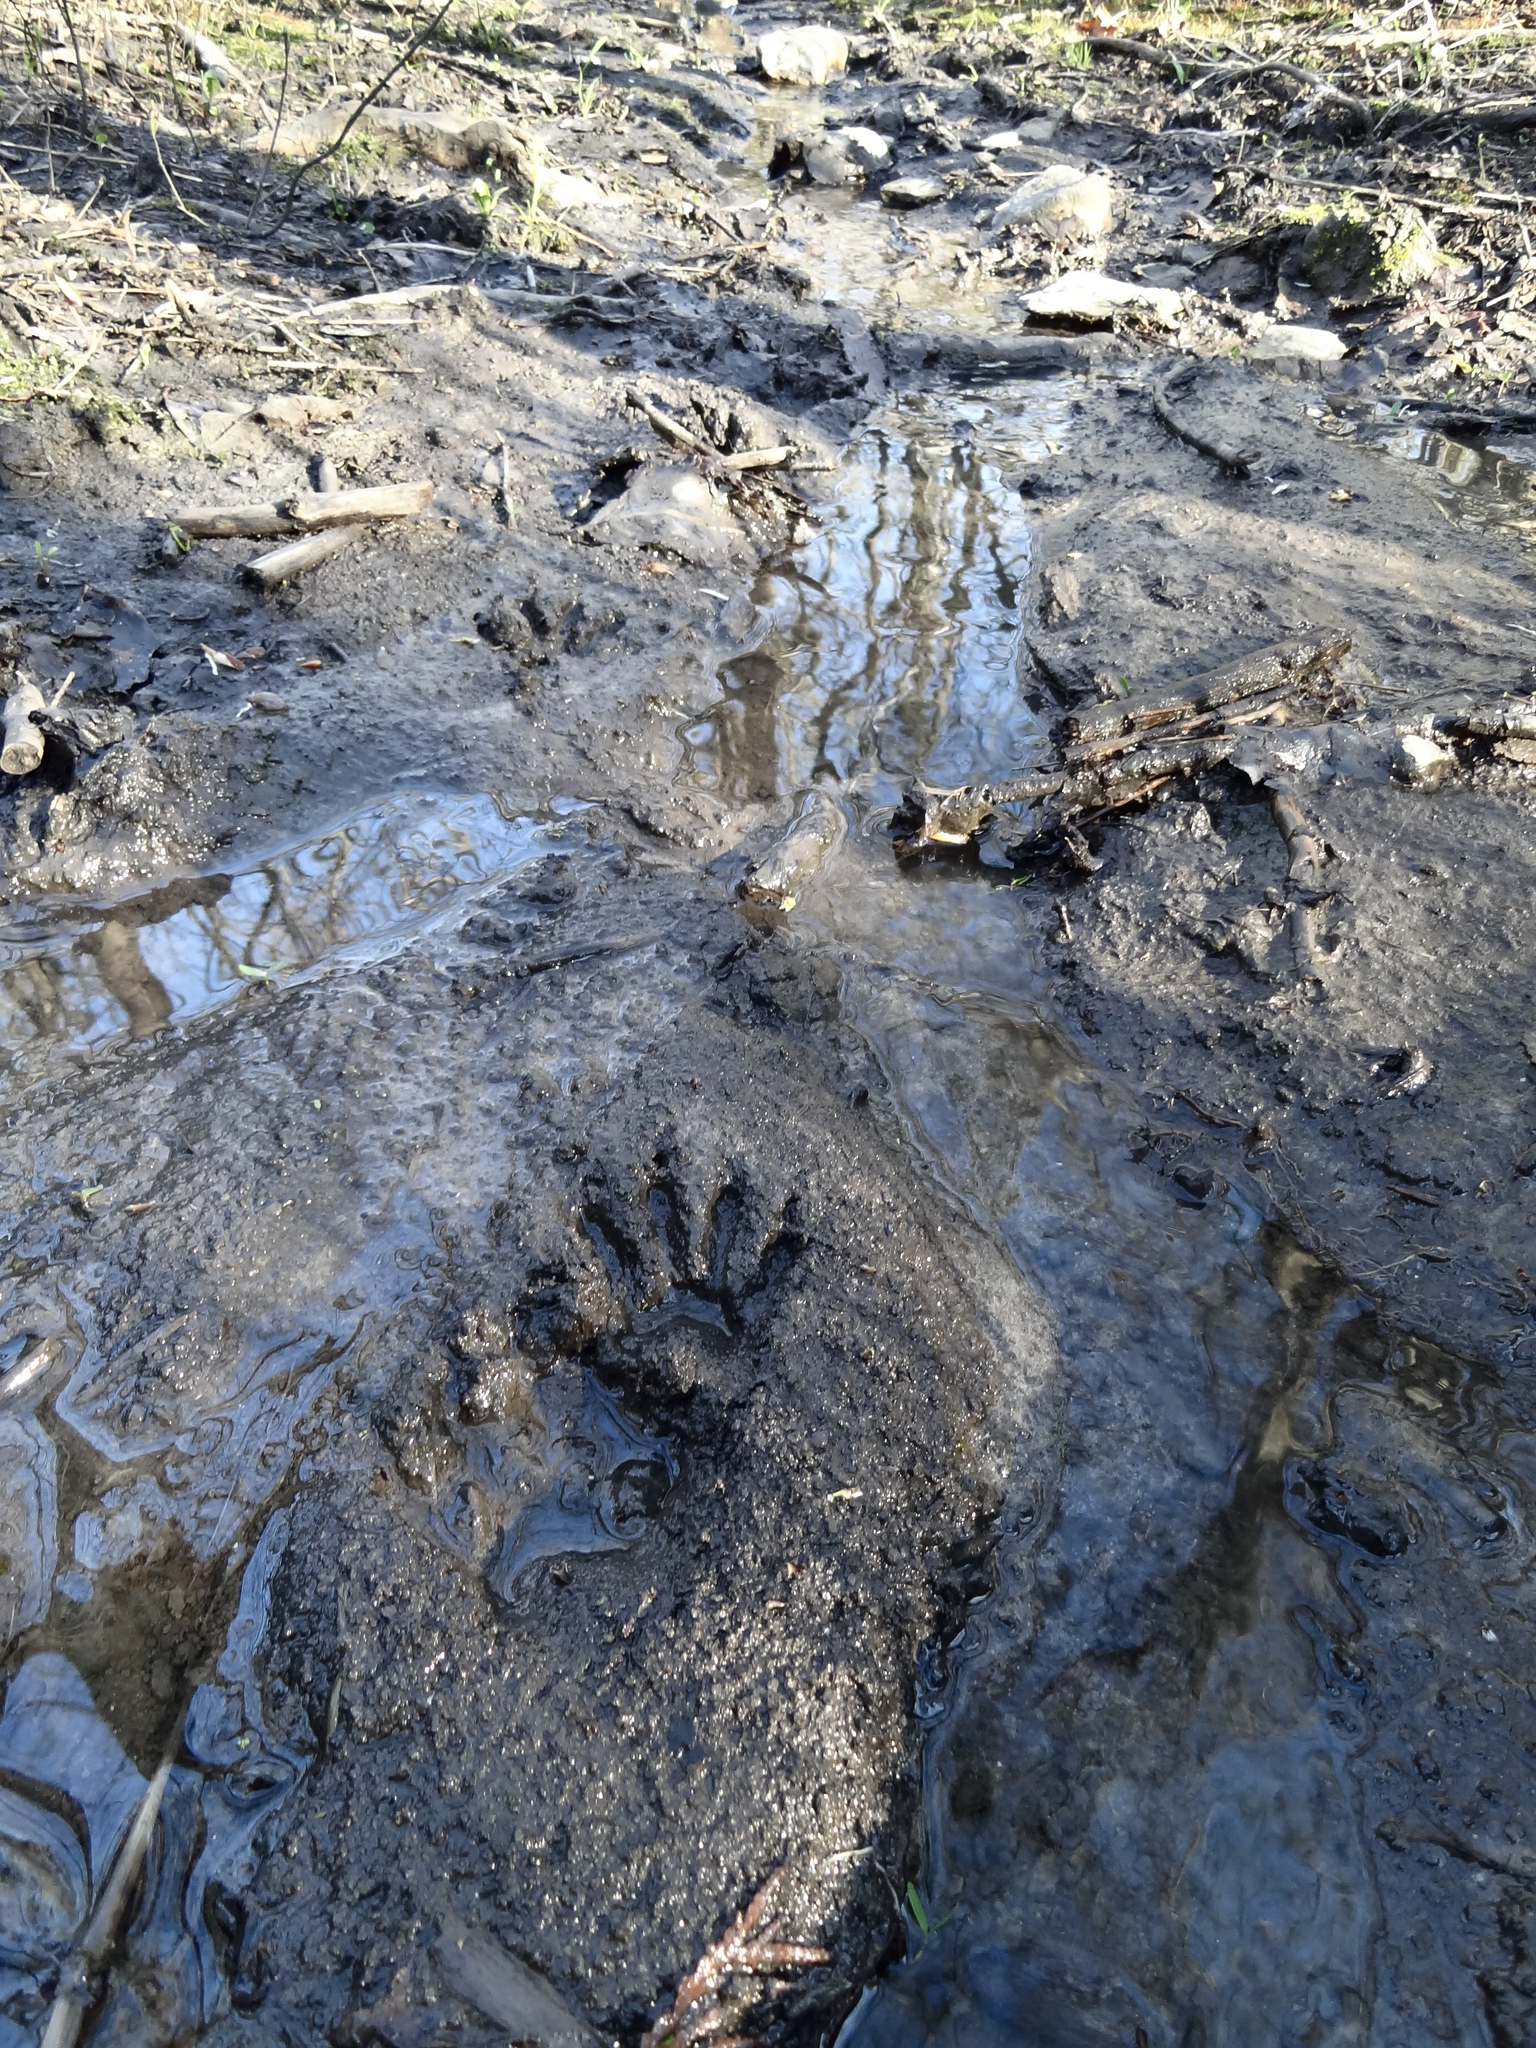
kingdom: Animalia
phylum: Chordata
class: Mammalia
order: Carnivora
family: Procyonidae
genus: Procyon
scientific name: Procyon lotor
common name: Raccoon
